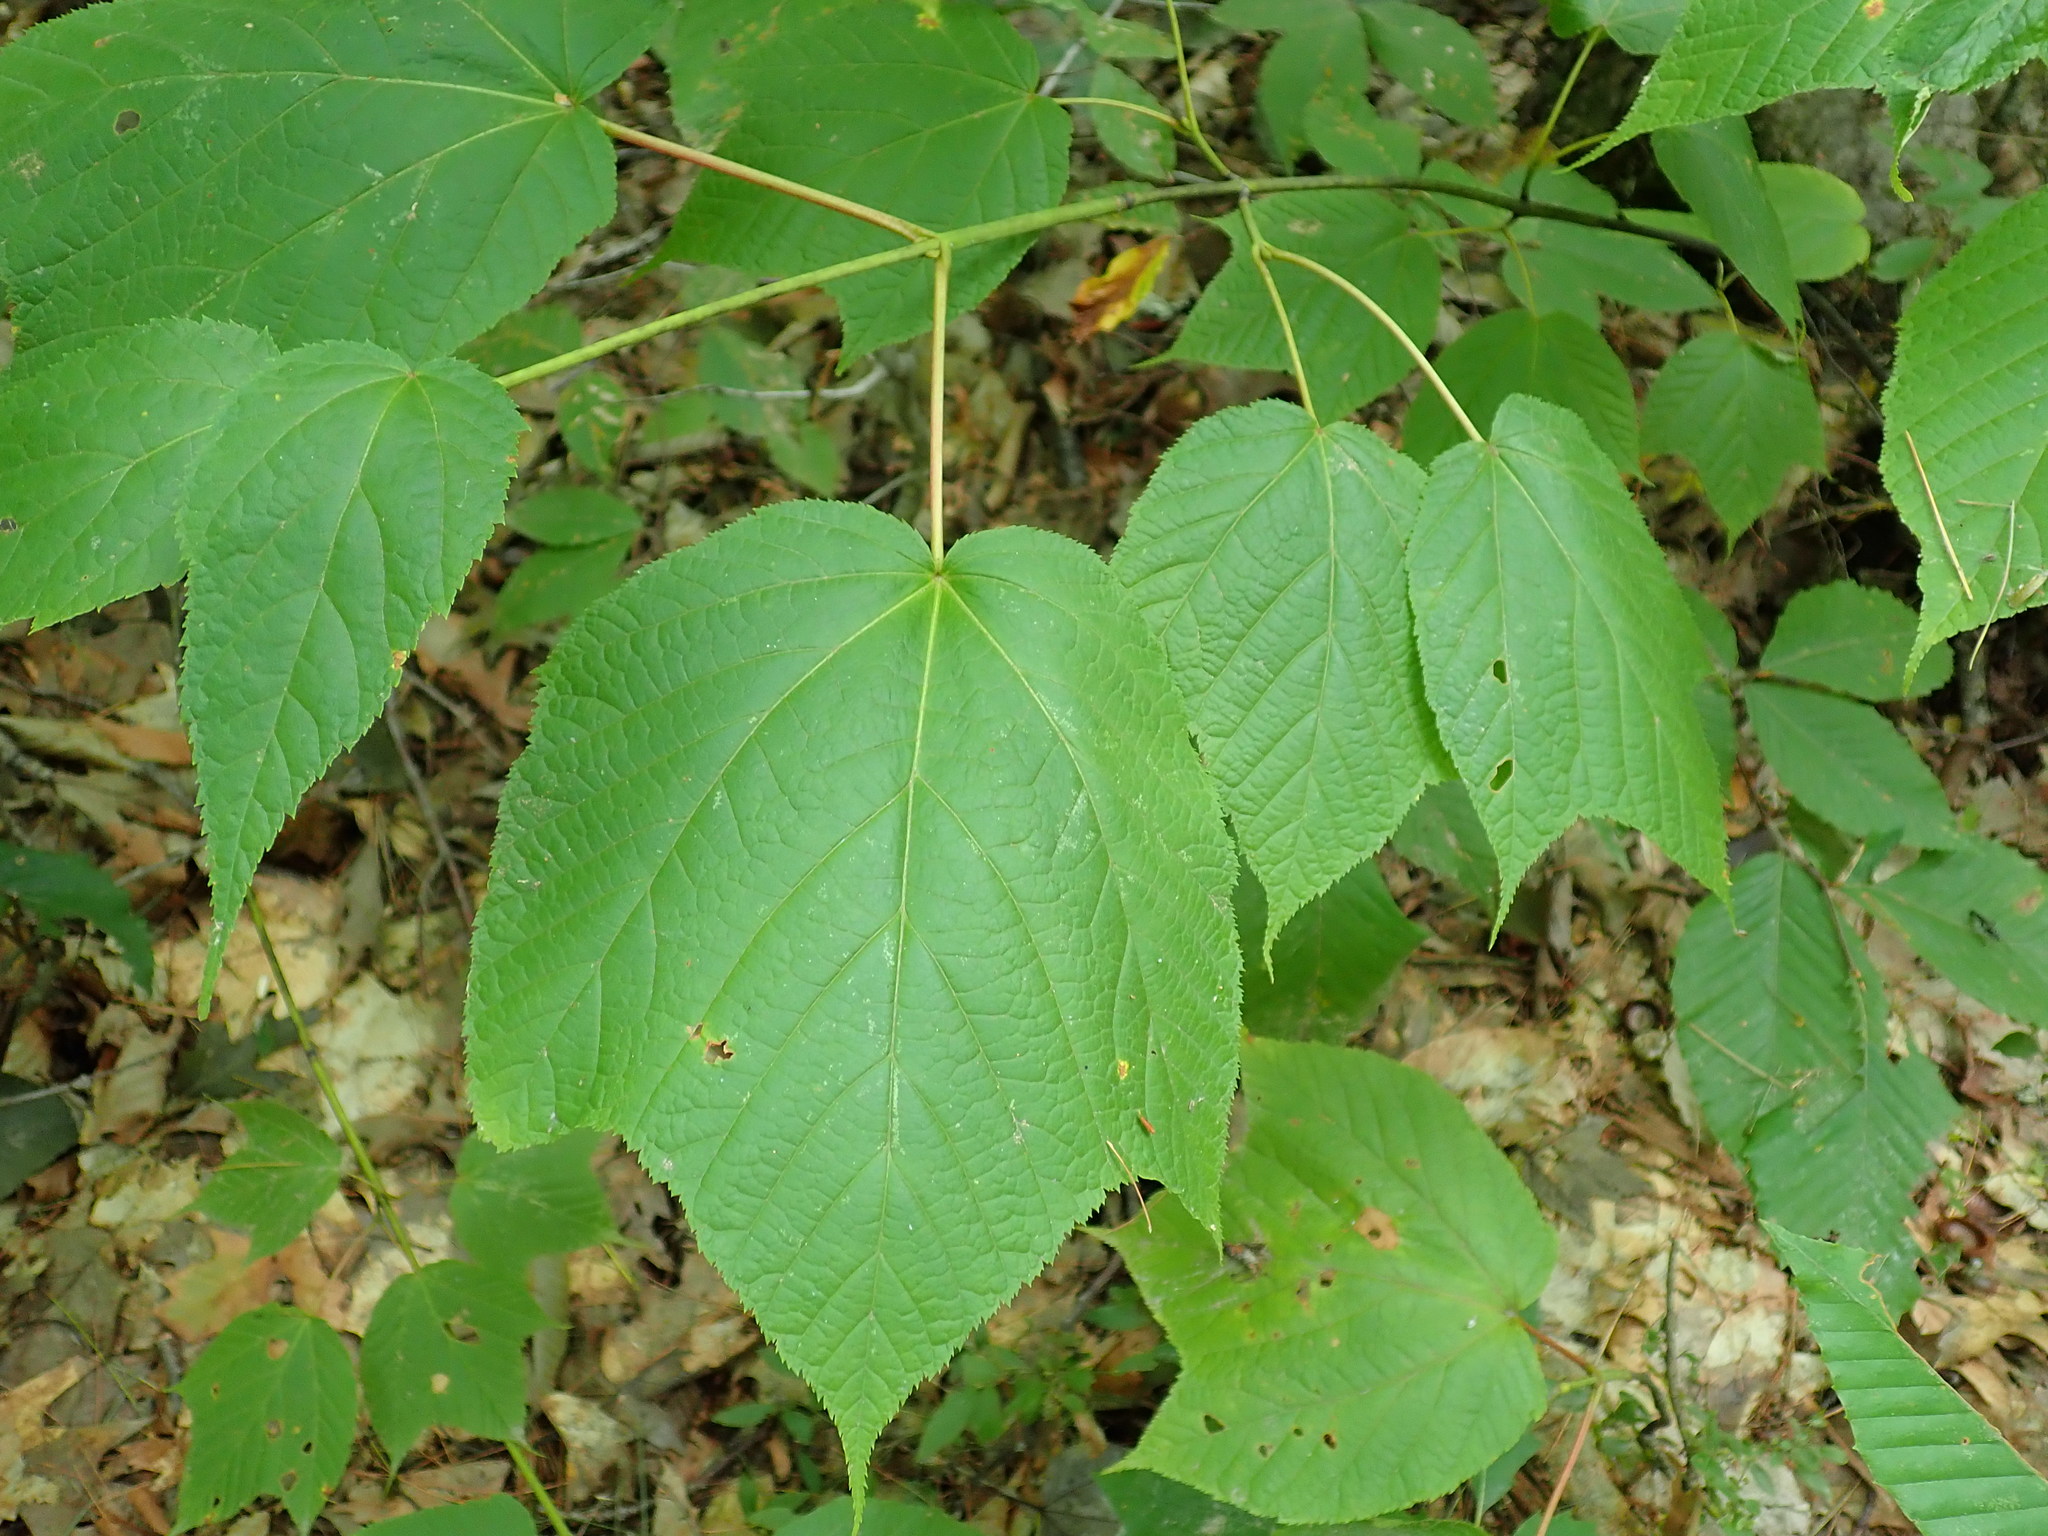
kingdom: Plantae
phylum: Tracheophyta
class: Magnoliopsida
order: Sapindales
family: Sapindaceae
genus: Acer
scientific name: Acer pensylvanicum
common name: Moosewood
